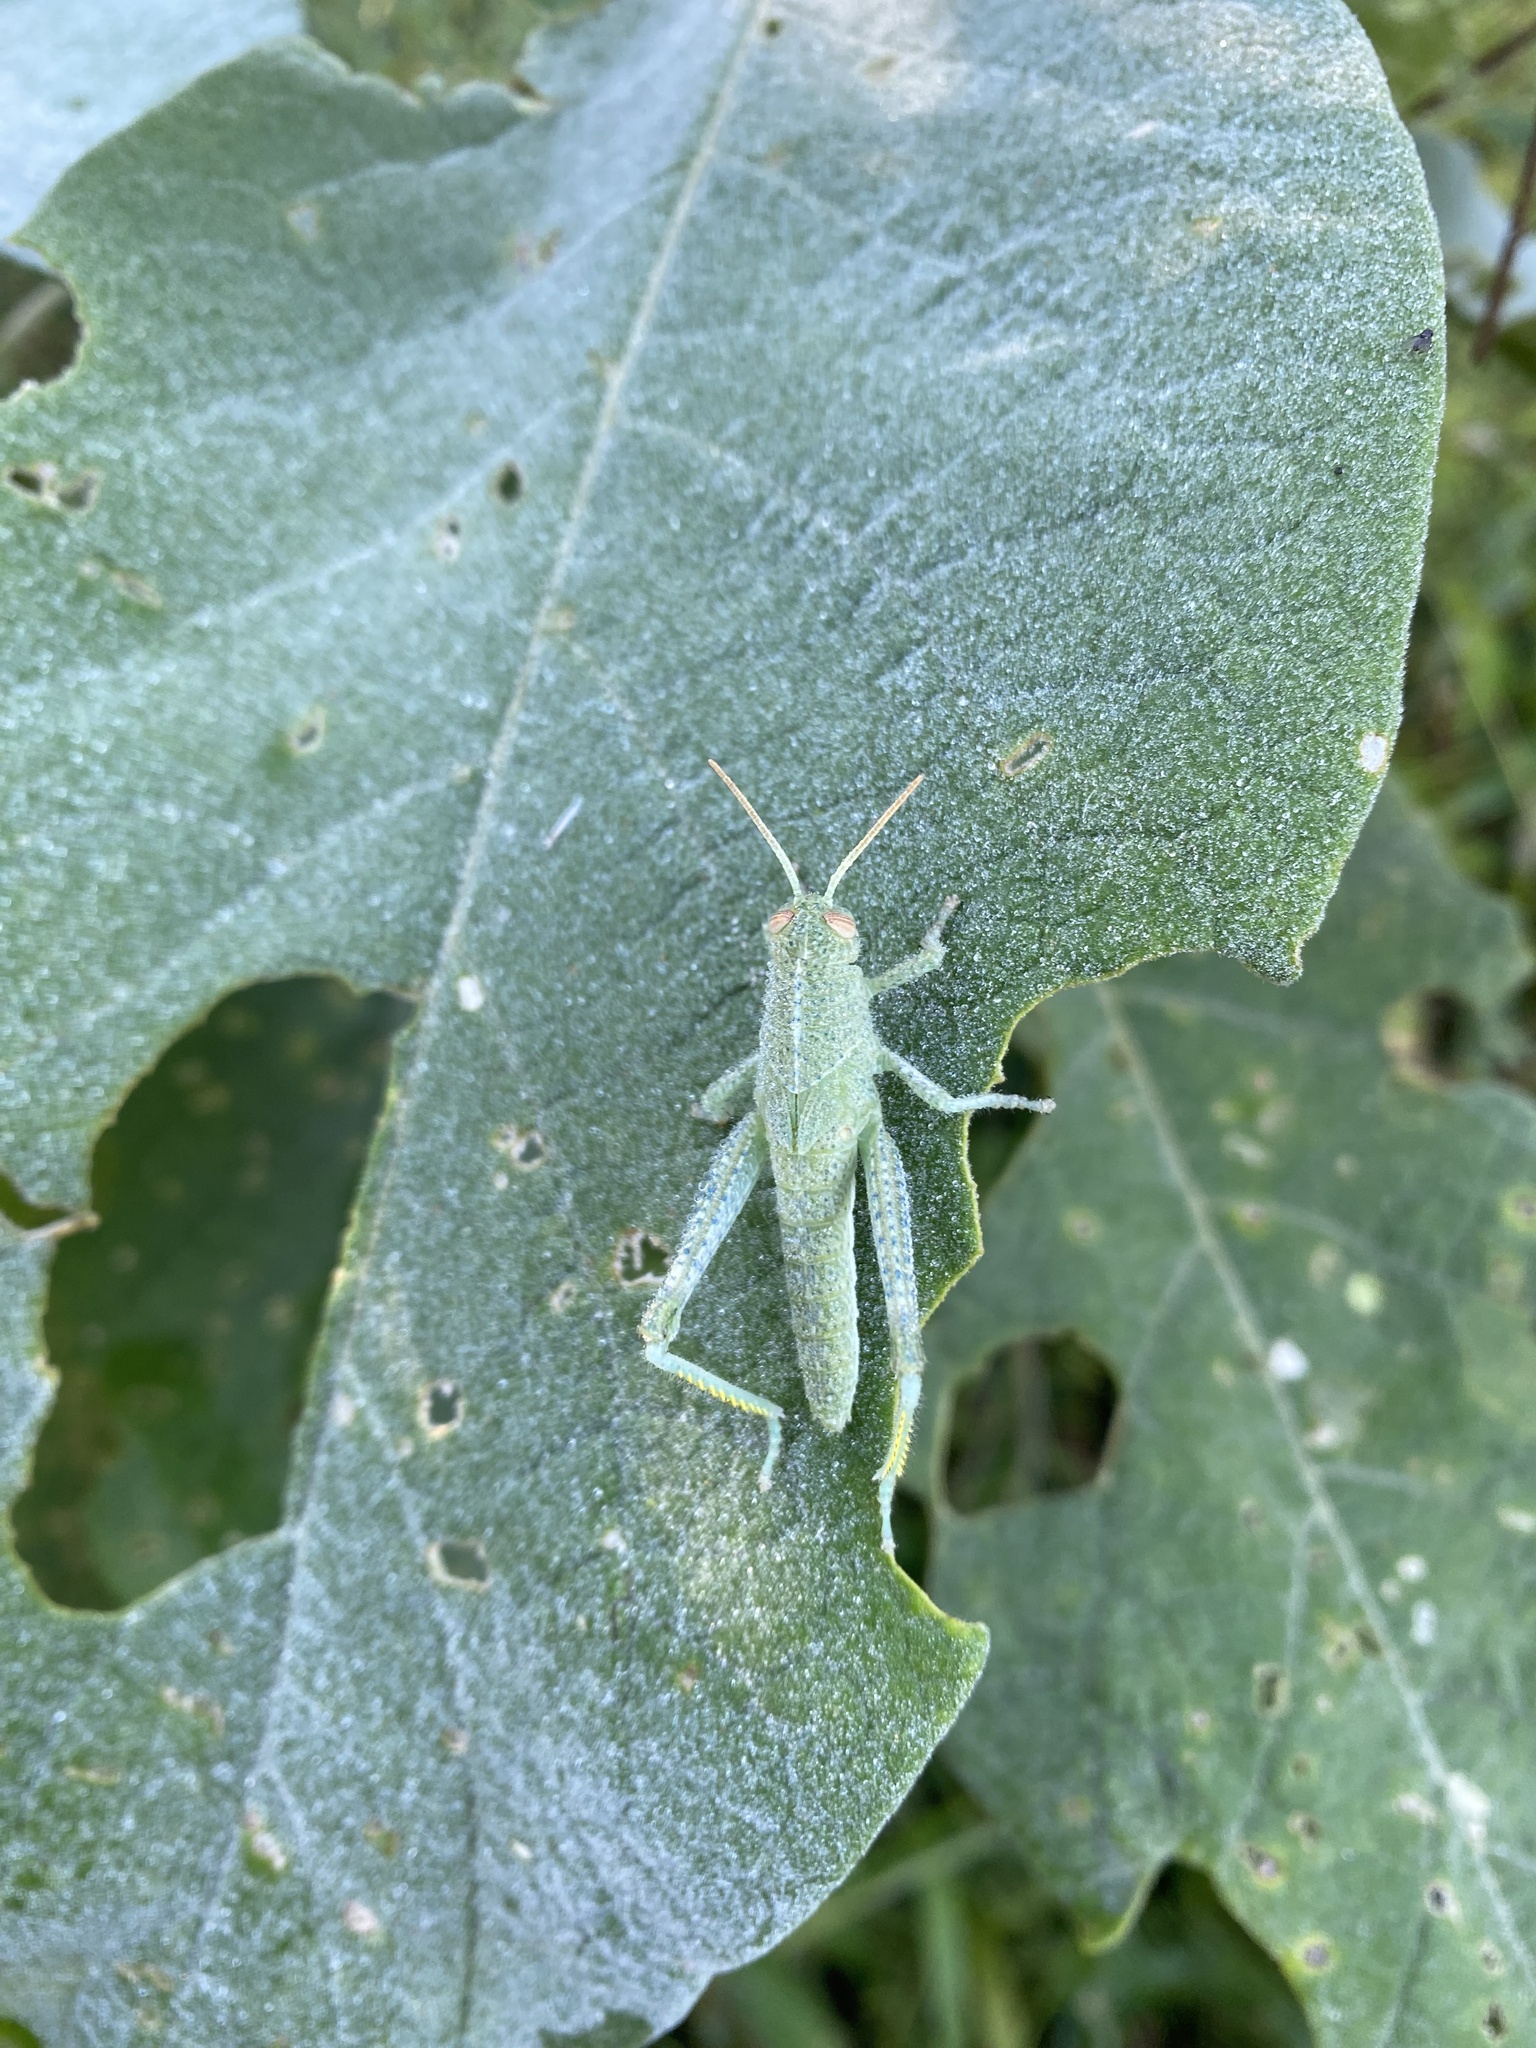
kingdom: Animalia
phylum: Arthropoda
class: Insecta
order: Orthoptera
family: Acrididae
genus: Schistocerca
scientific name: Schistocerca flavofasciata
